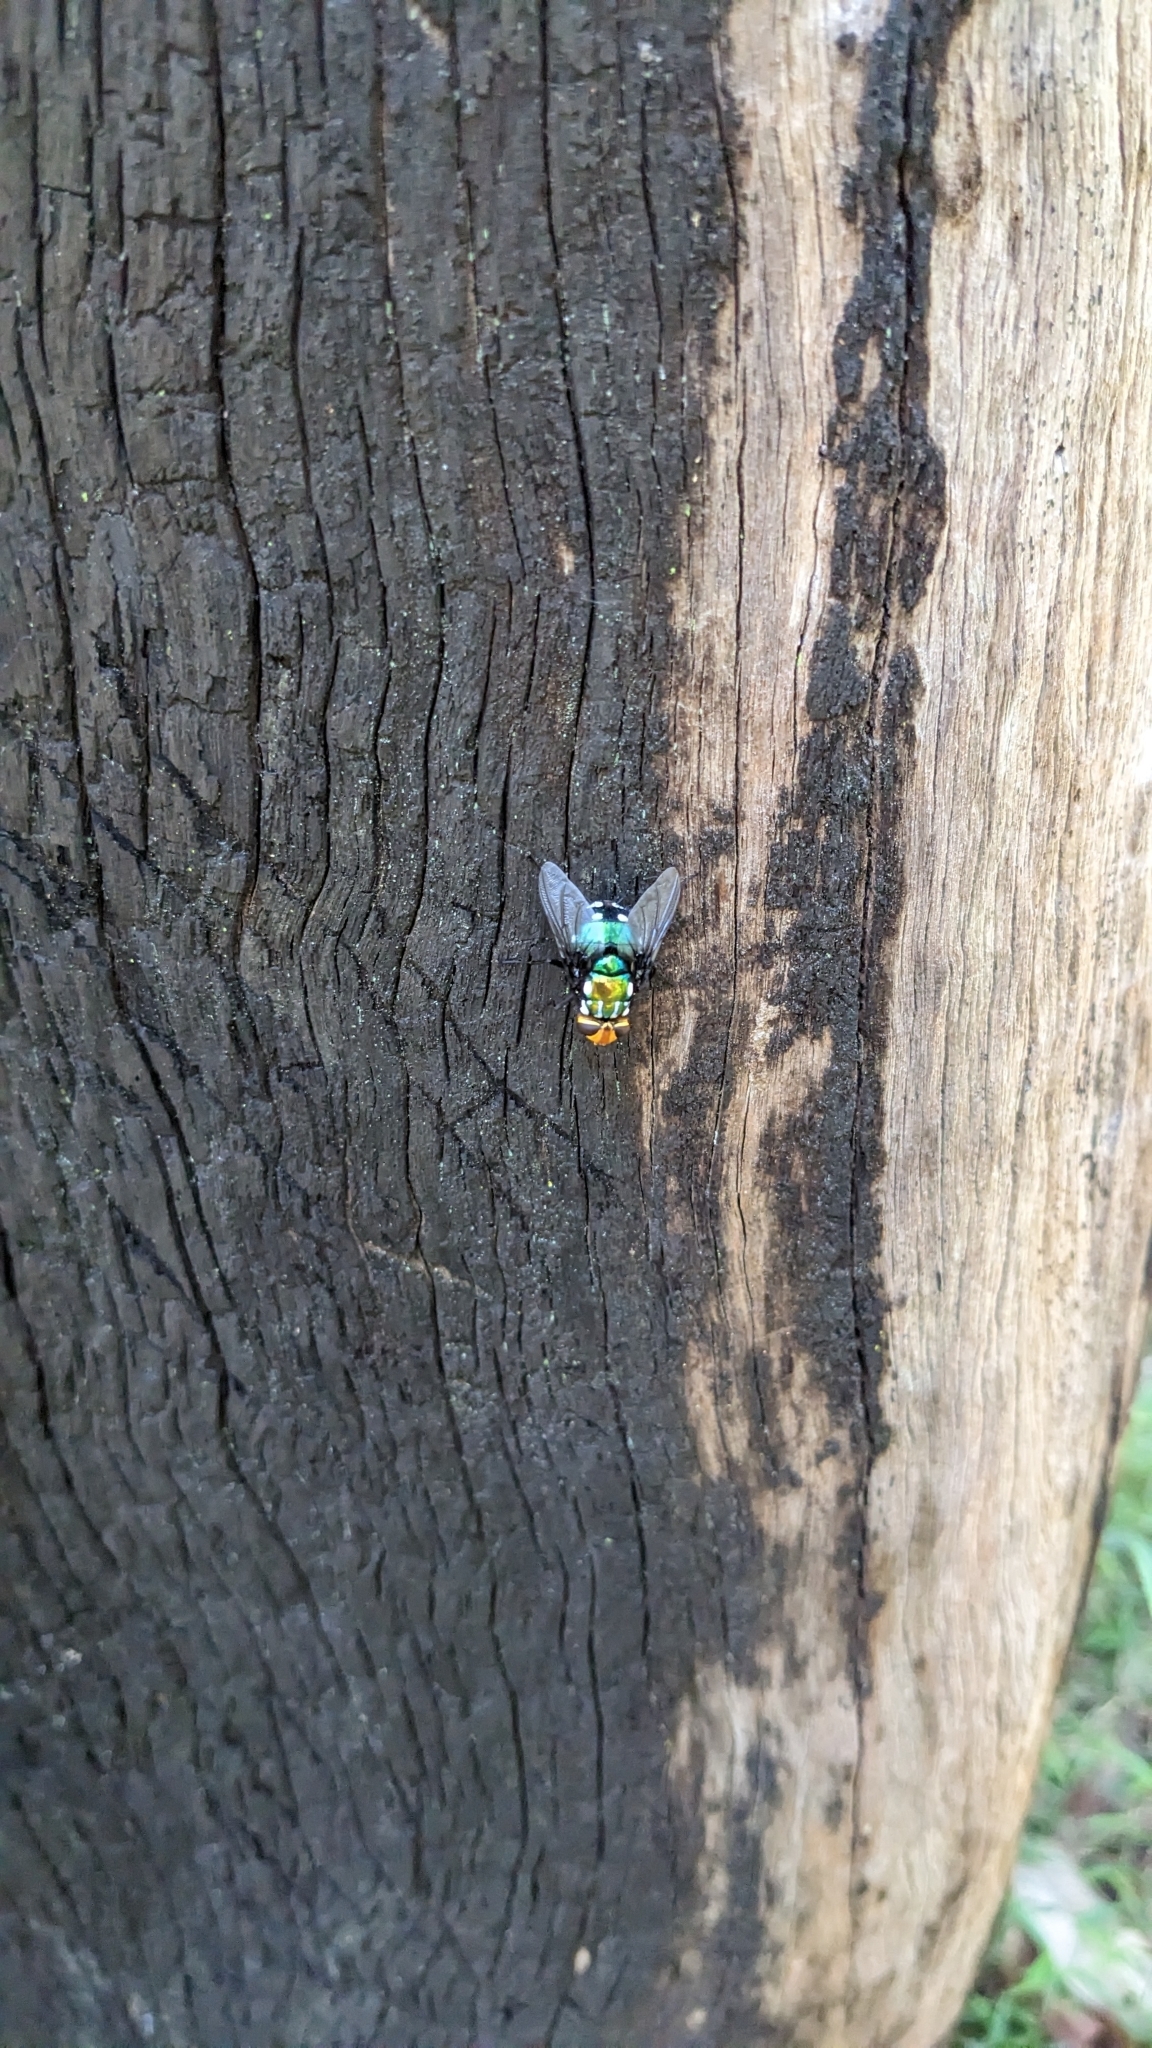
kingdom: Animalia
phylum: Arthropoda
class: Insecta
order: Diptera
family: Tachinidae
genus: Rutilia
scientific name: Rutilia argentifera
